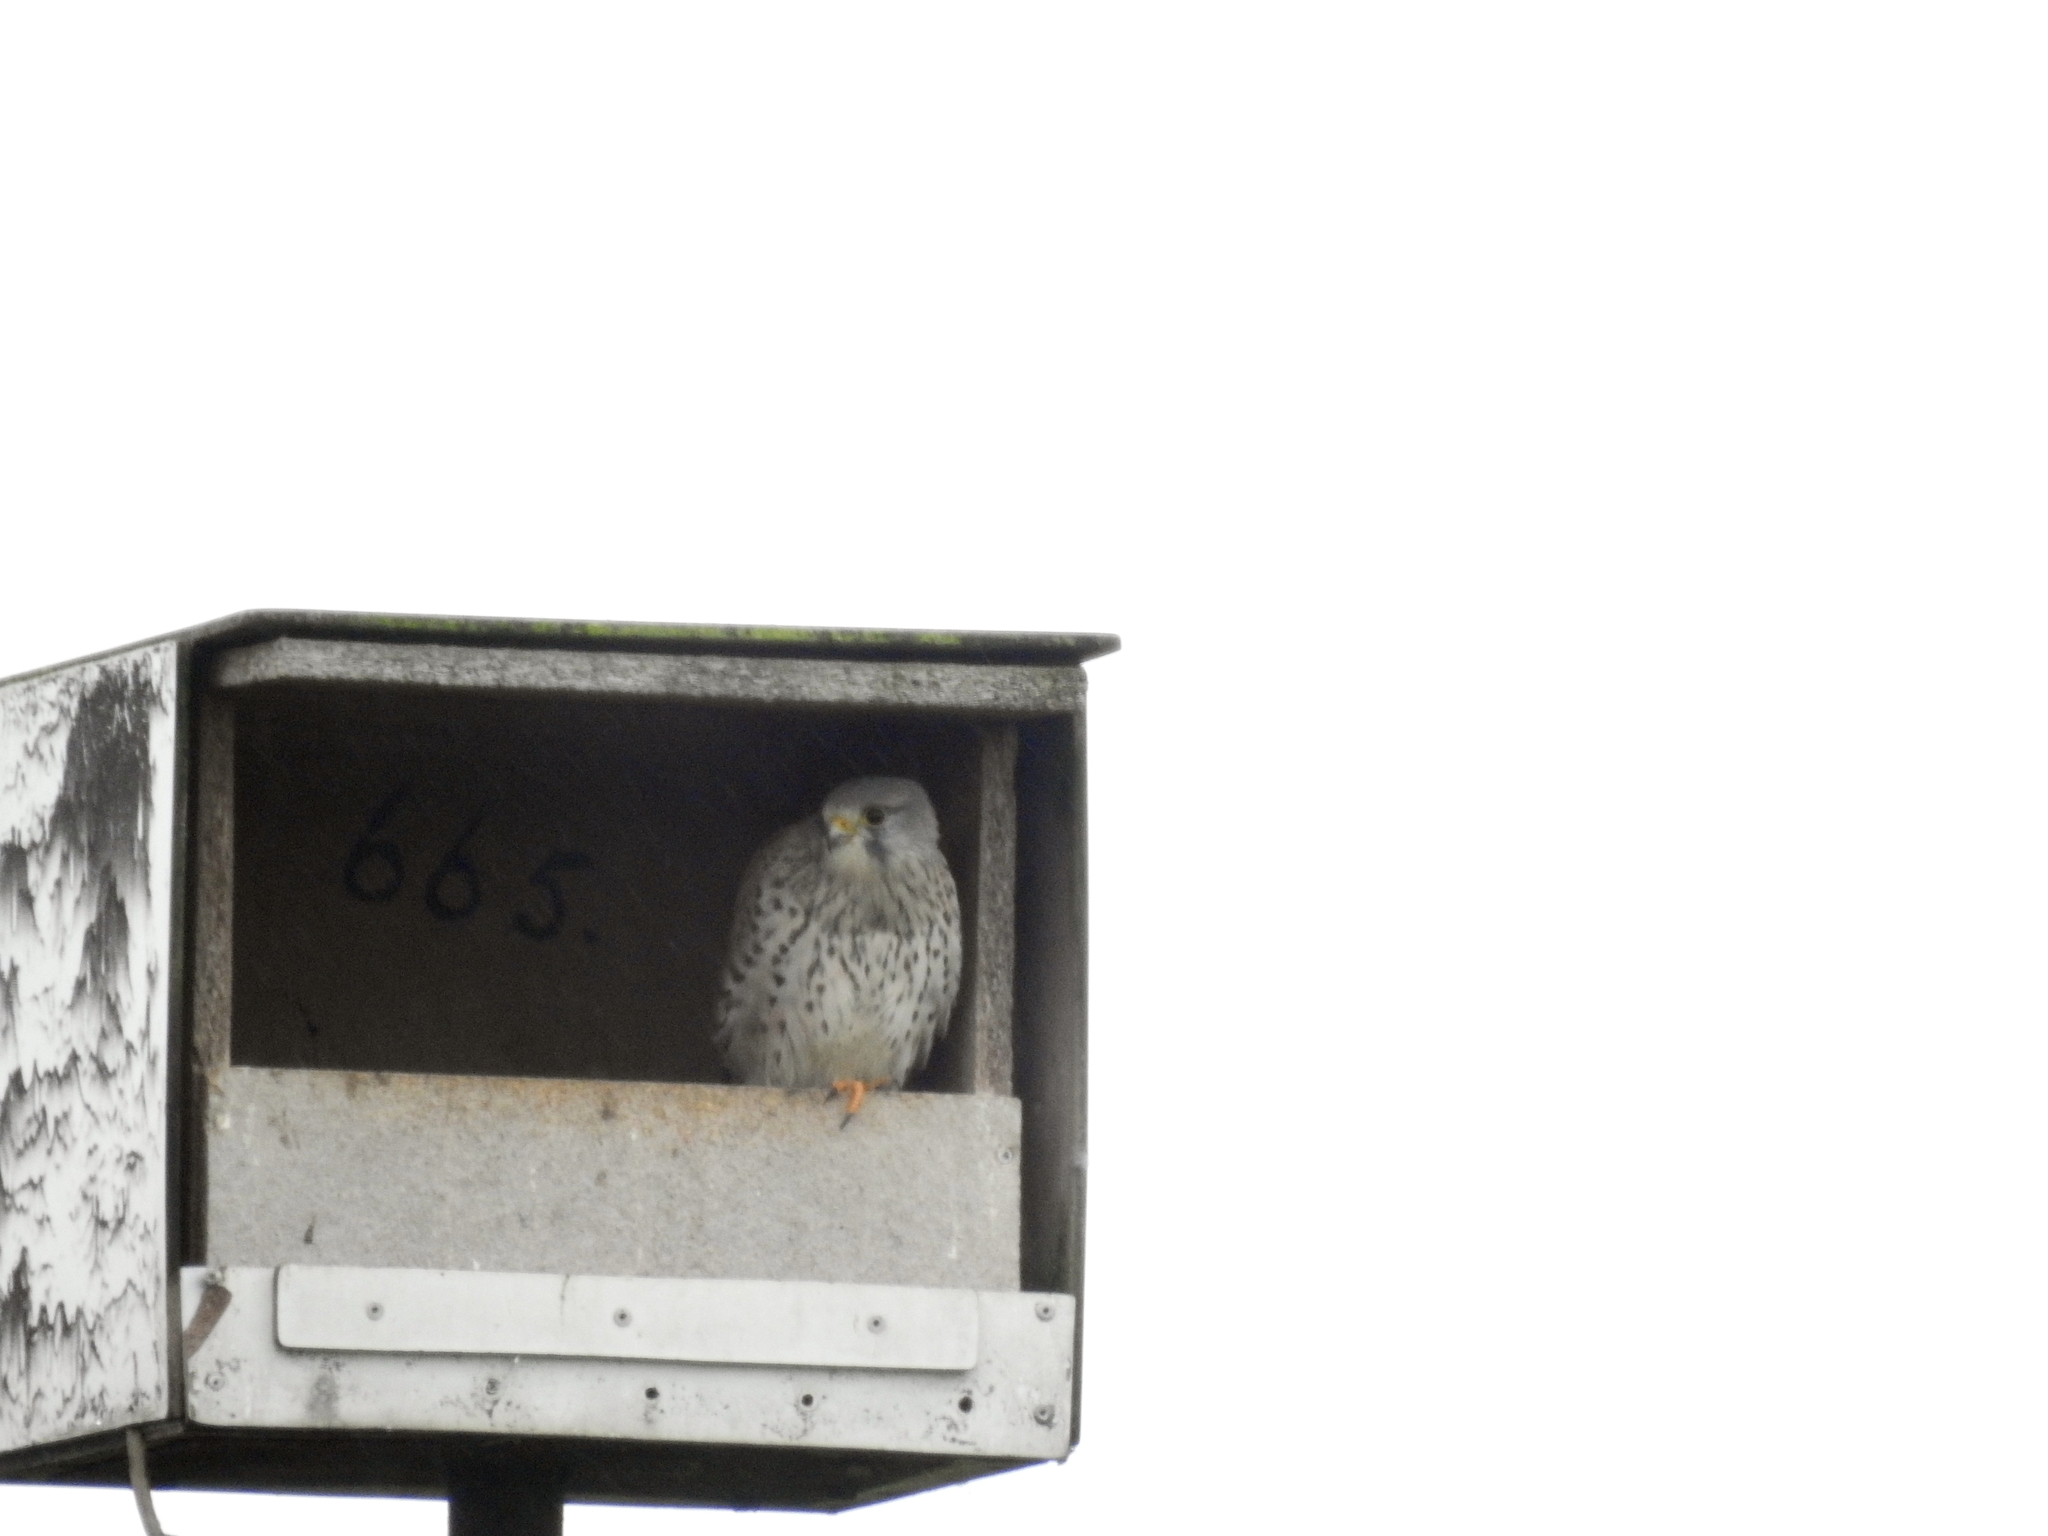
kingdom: Animalia
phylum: Chordata
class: Aves
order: Falconiformes
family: Falconidae
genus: Falco
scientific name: Falco tinnunculus
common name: Common kestrel
